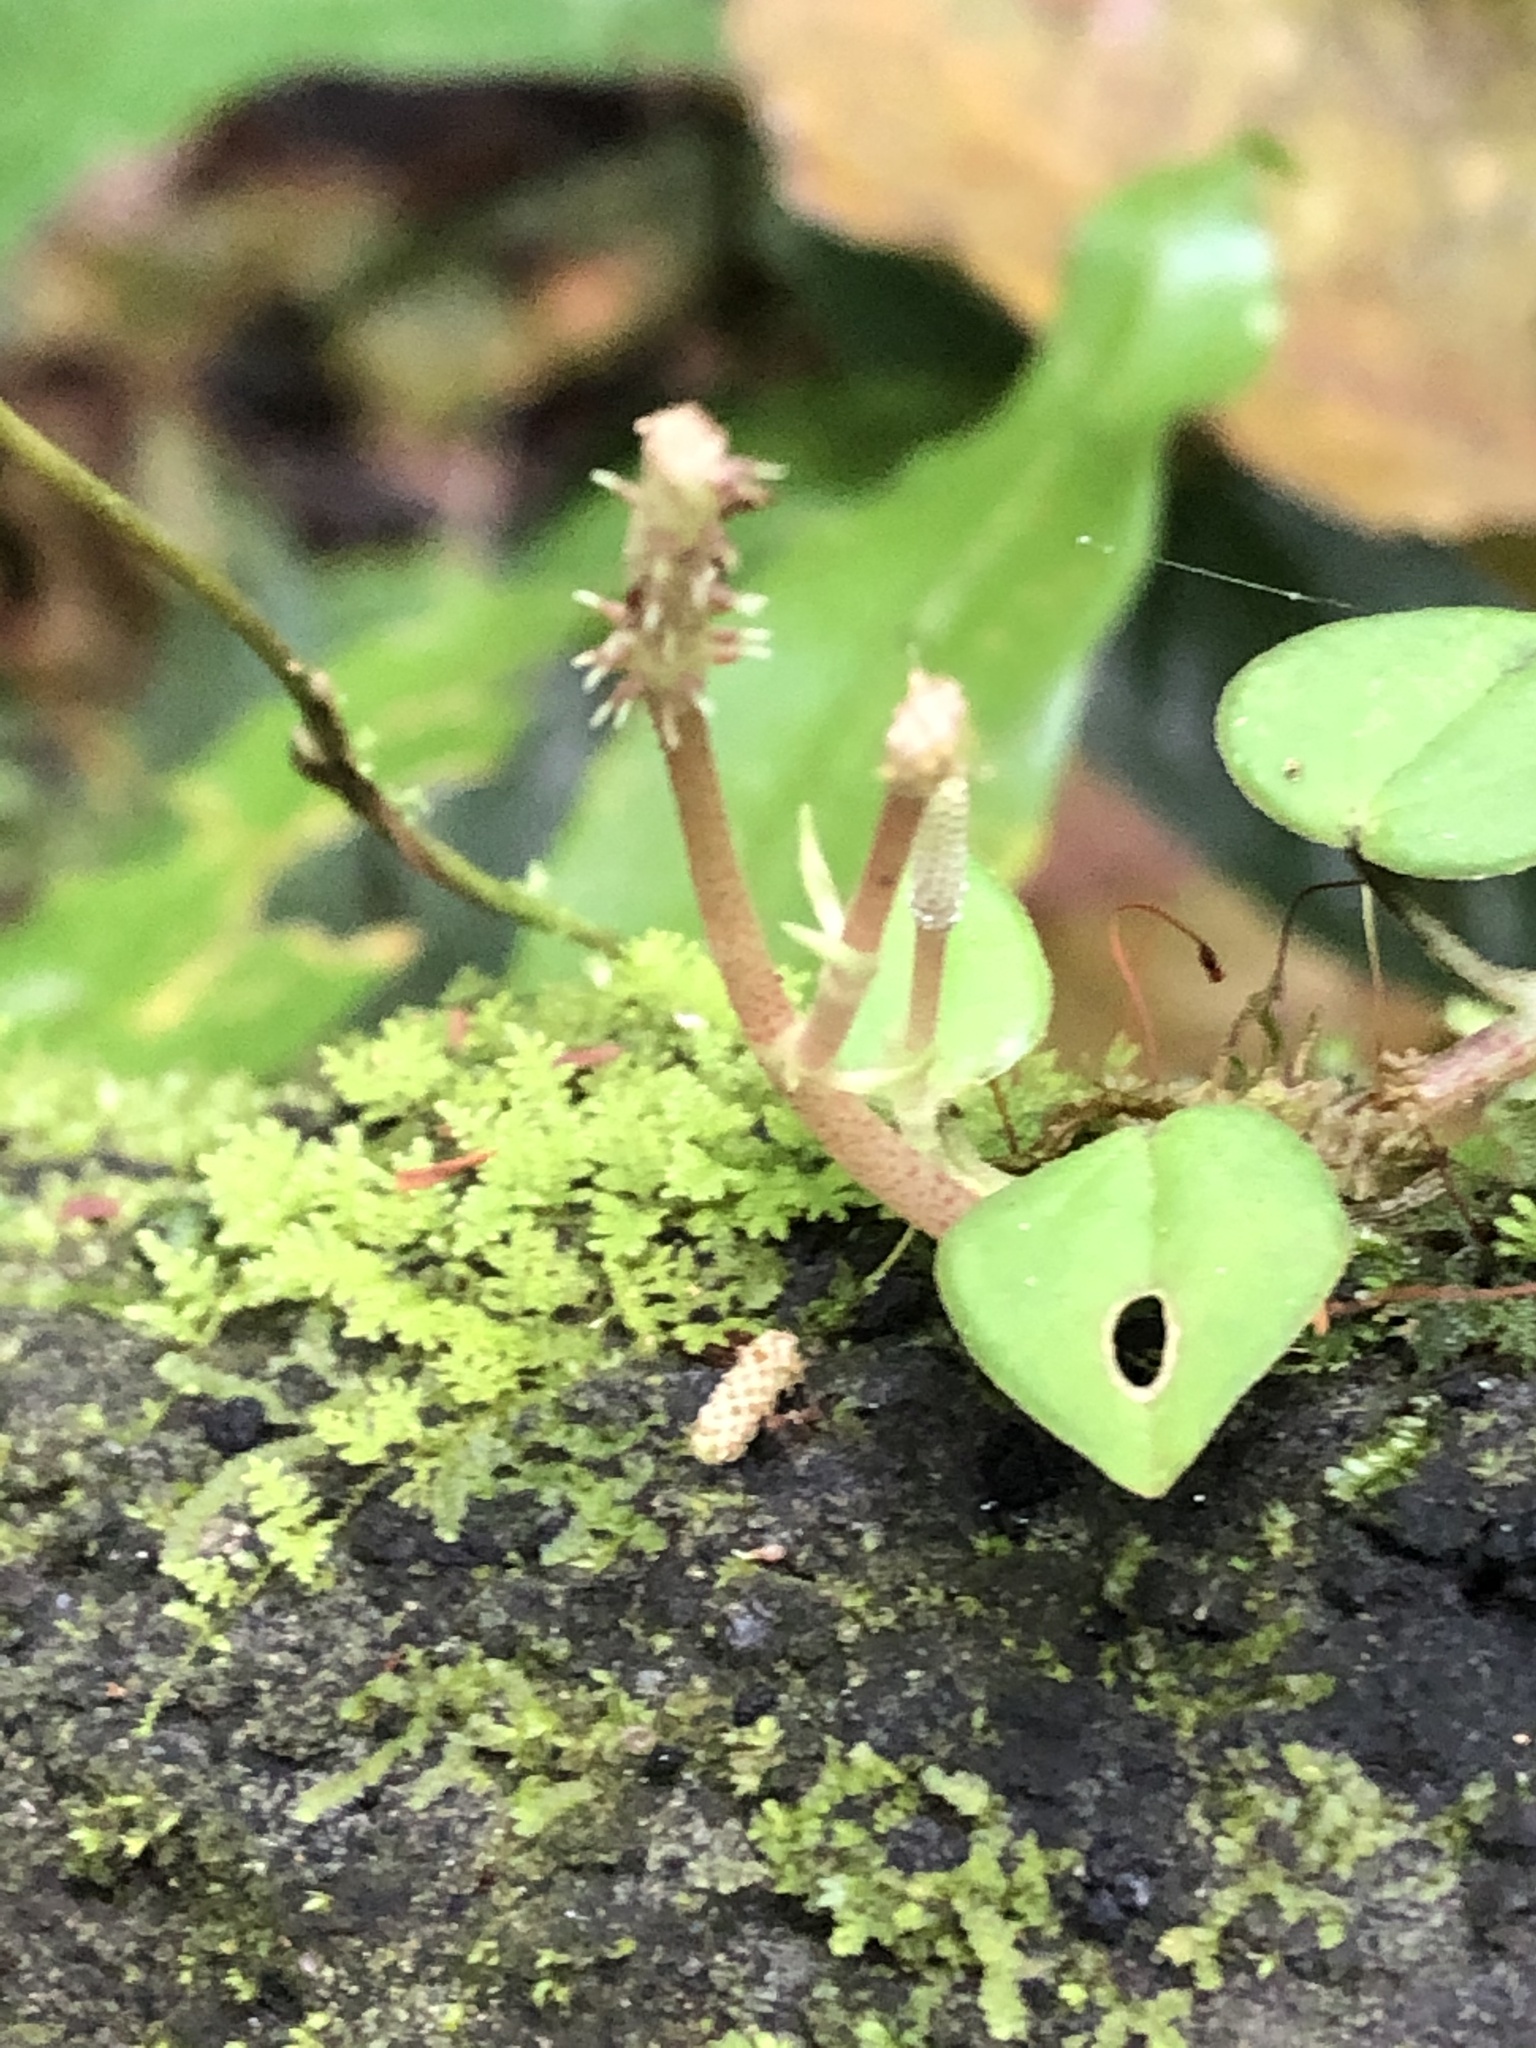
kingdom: Plantae
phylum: Tracheophyta
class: Magnoliopsida
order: Piperales
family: Piperaceae
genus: Peperomia
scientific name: Peperomia serpens
